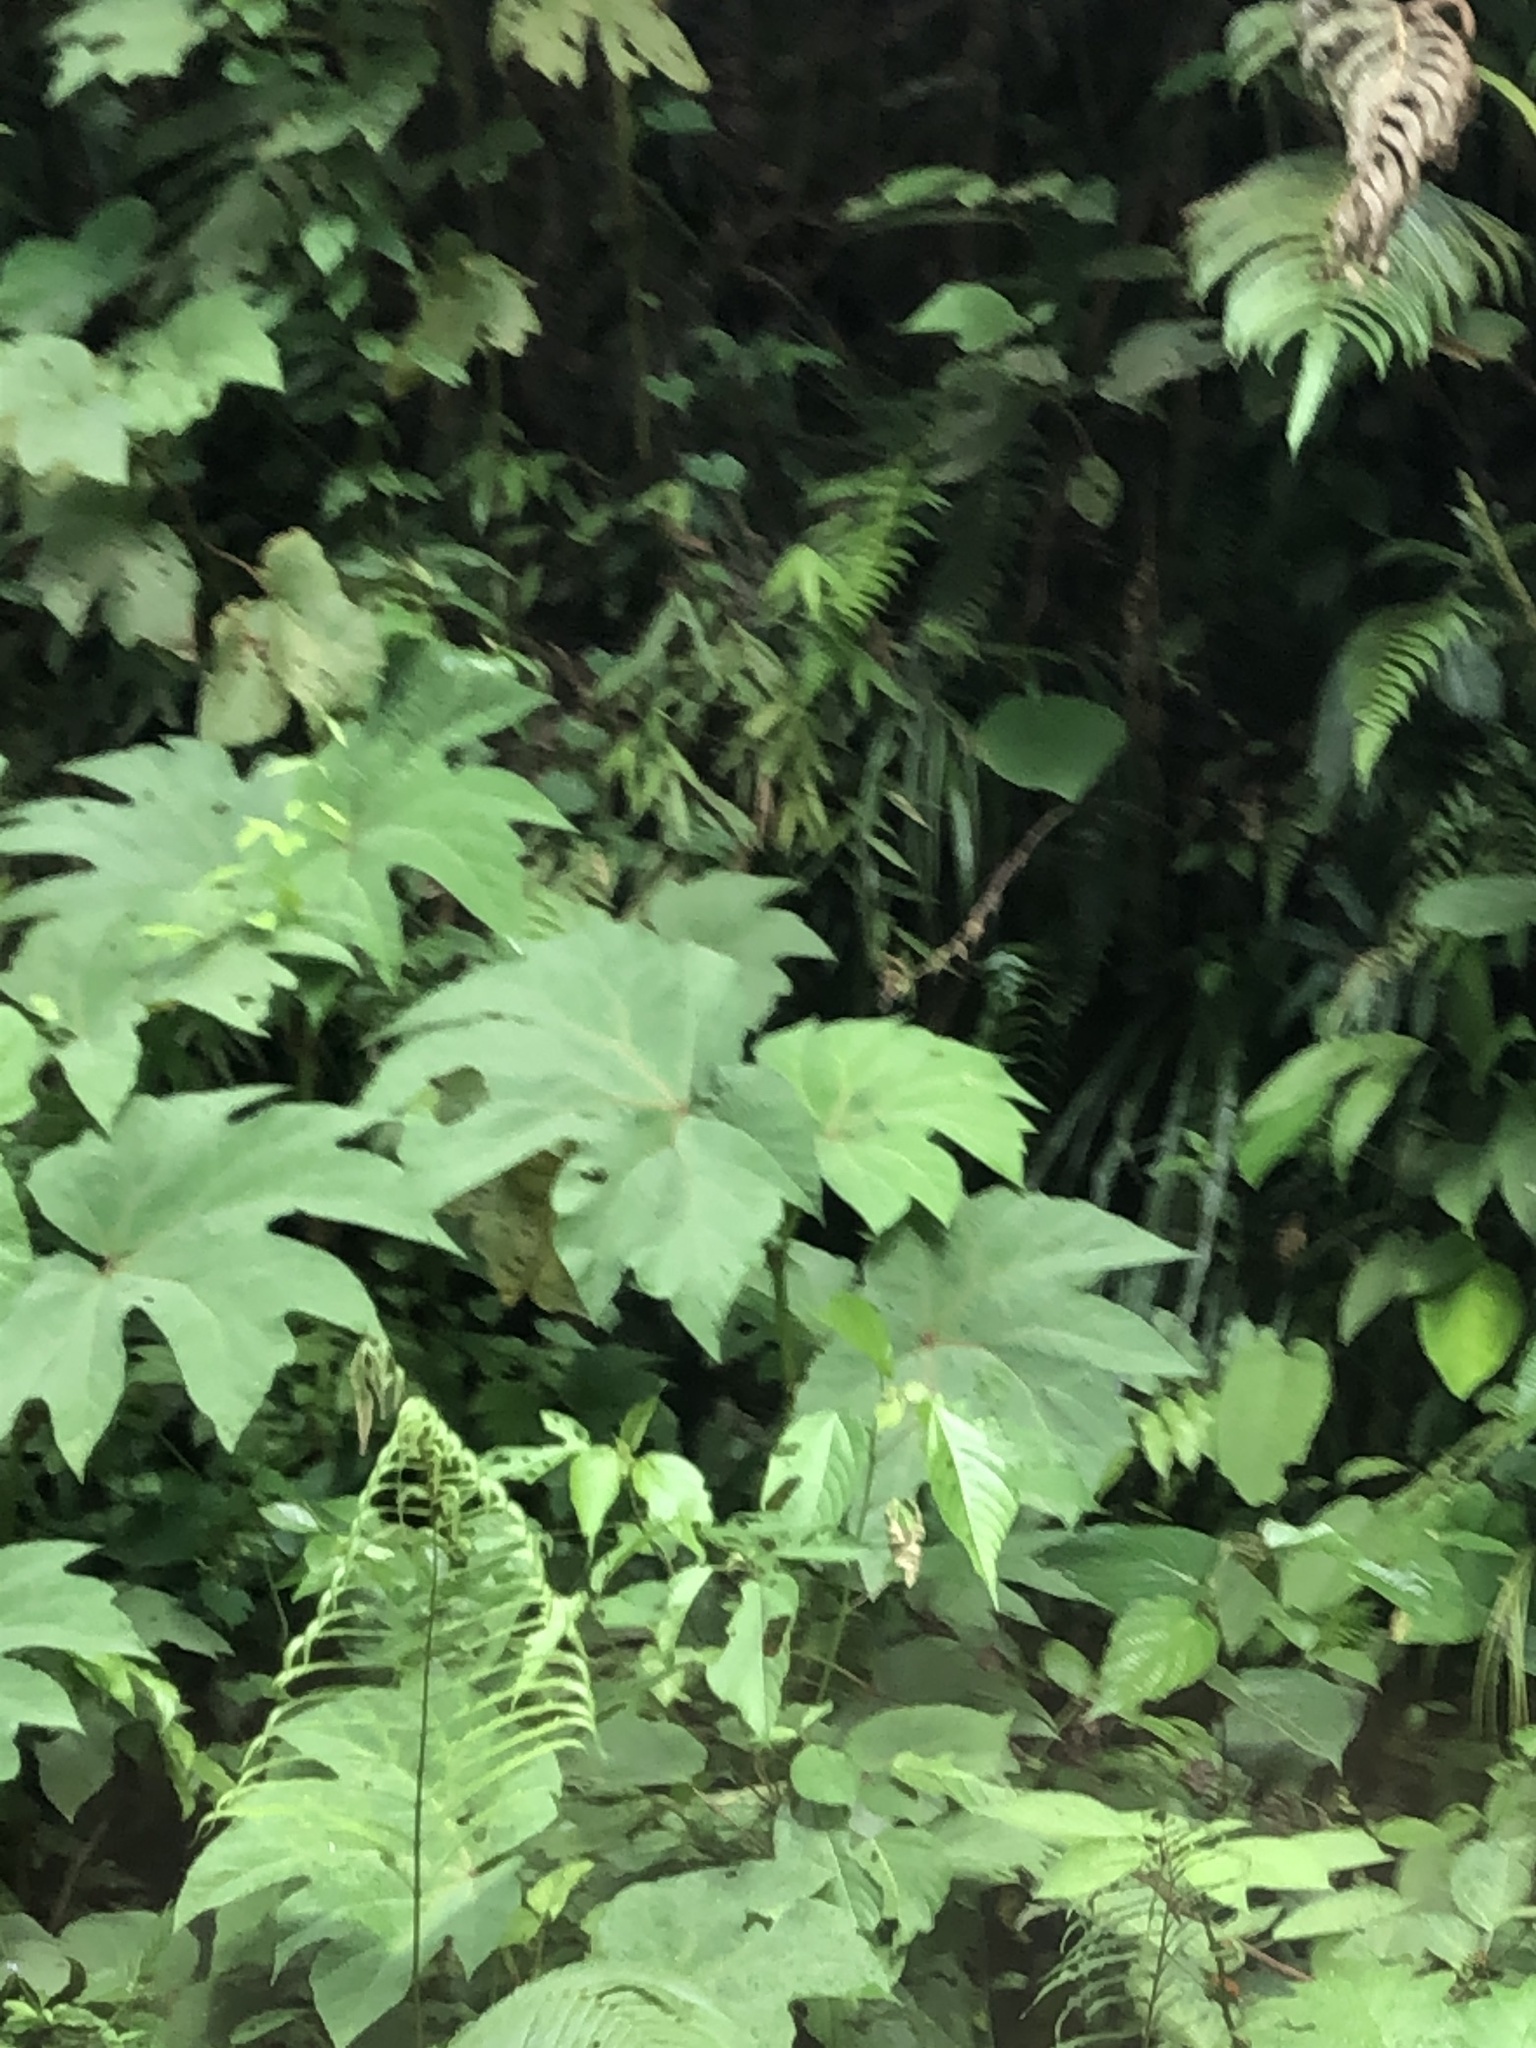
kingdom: Plantae
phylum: Tracheophyta
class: Magnoliopsida
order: Cucurbitales
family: Begoniaceae
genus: Begonia
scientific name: Begonia parviflora
